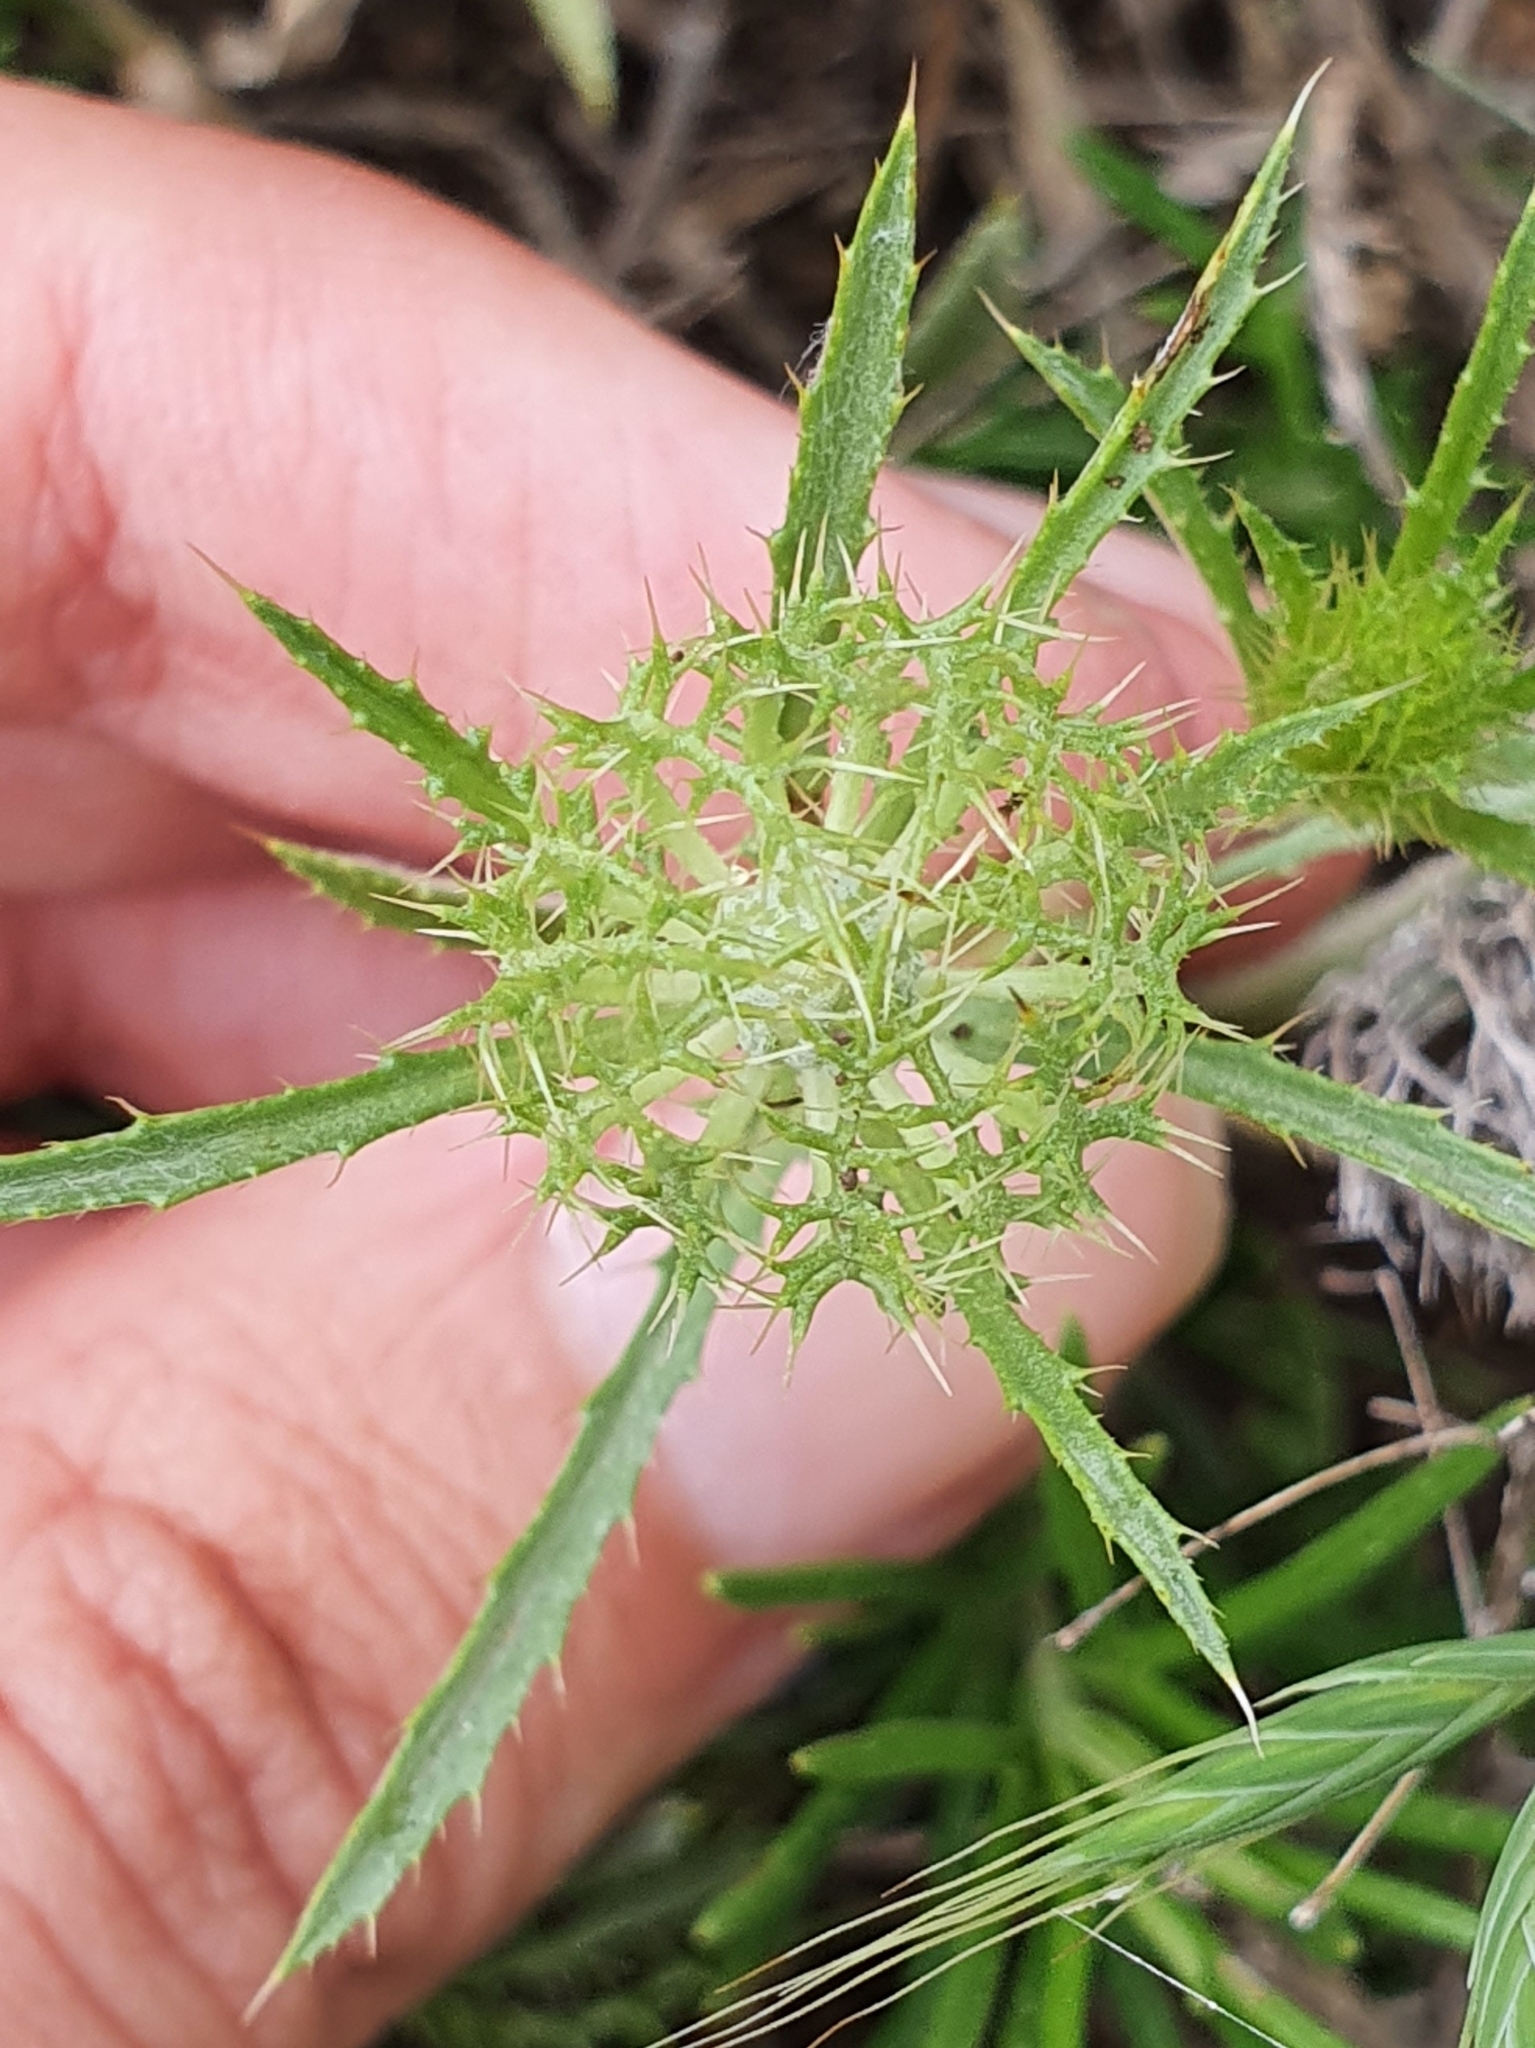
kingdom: Plantae
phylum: Tracheophyta
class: Magnoliopsida
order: Asterales
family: Asteraceae
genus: Atractylis
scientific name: Atractylis cancellata
